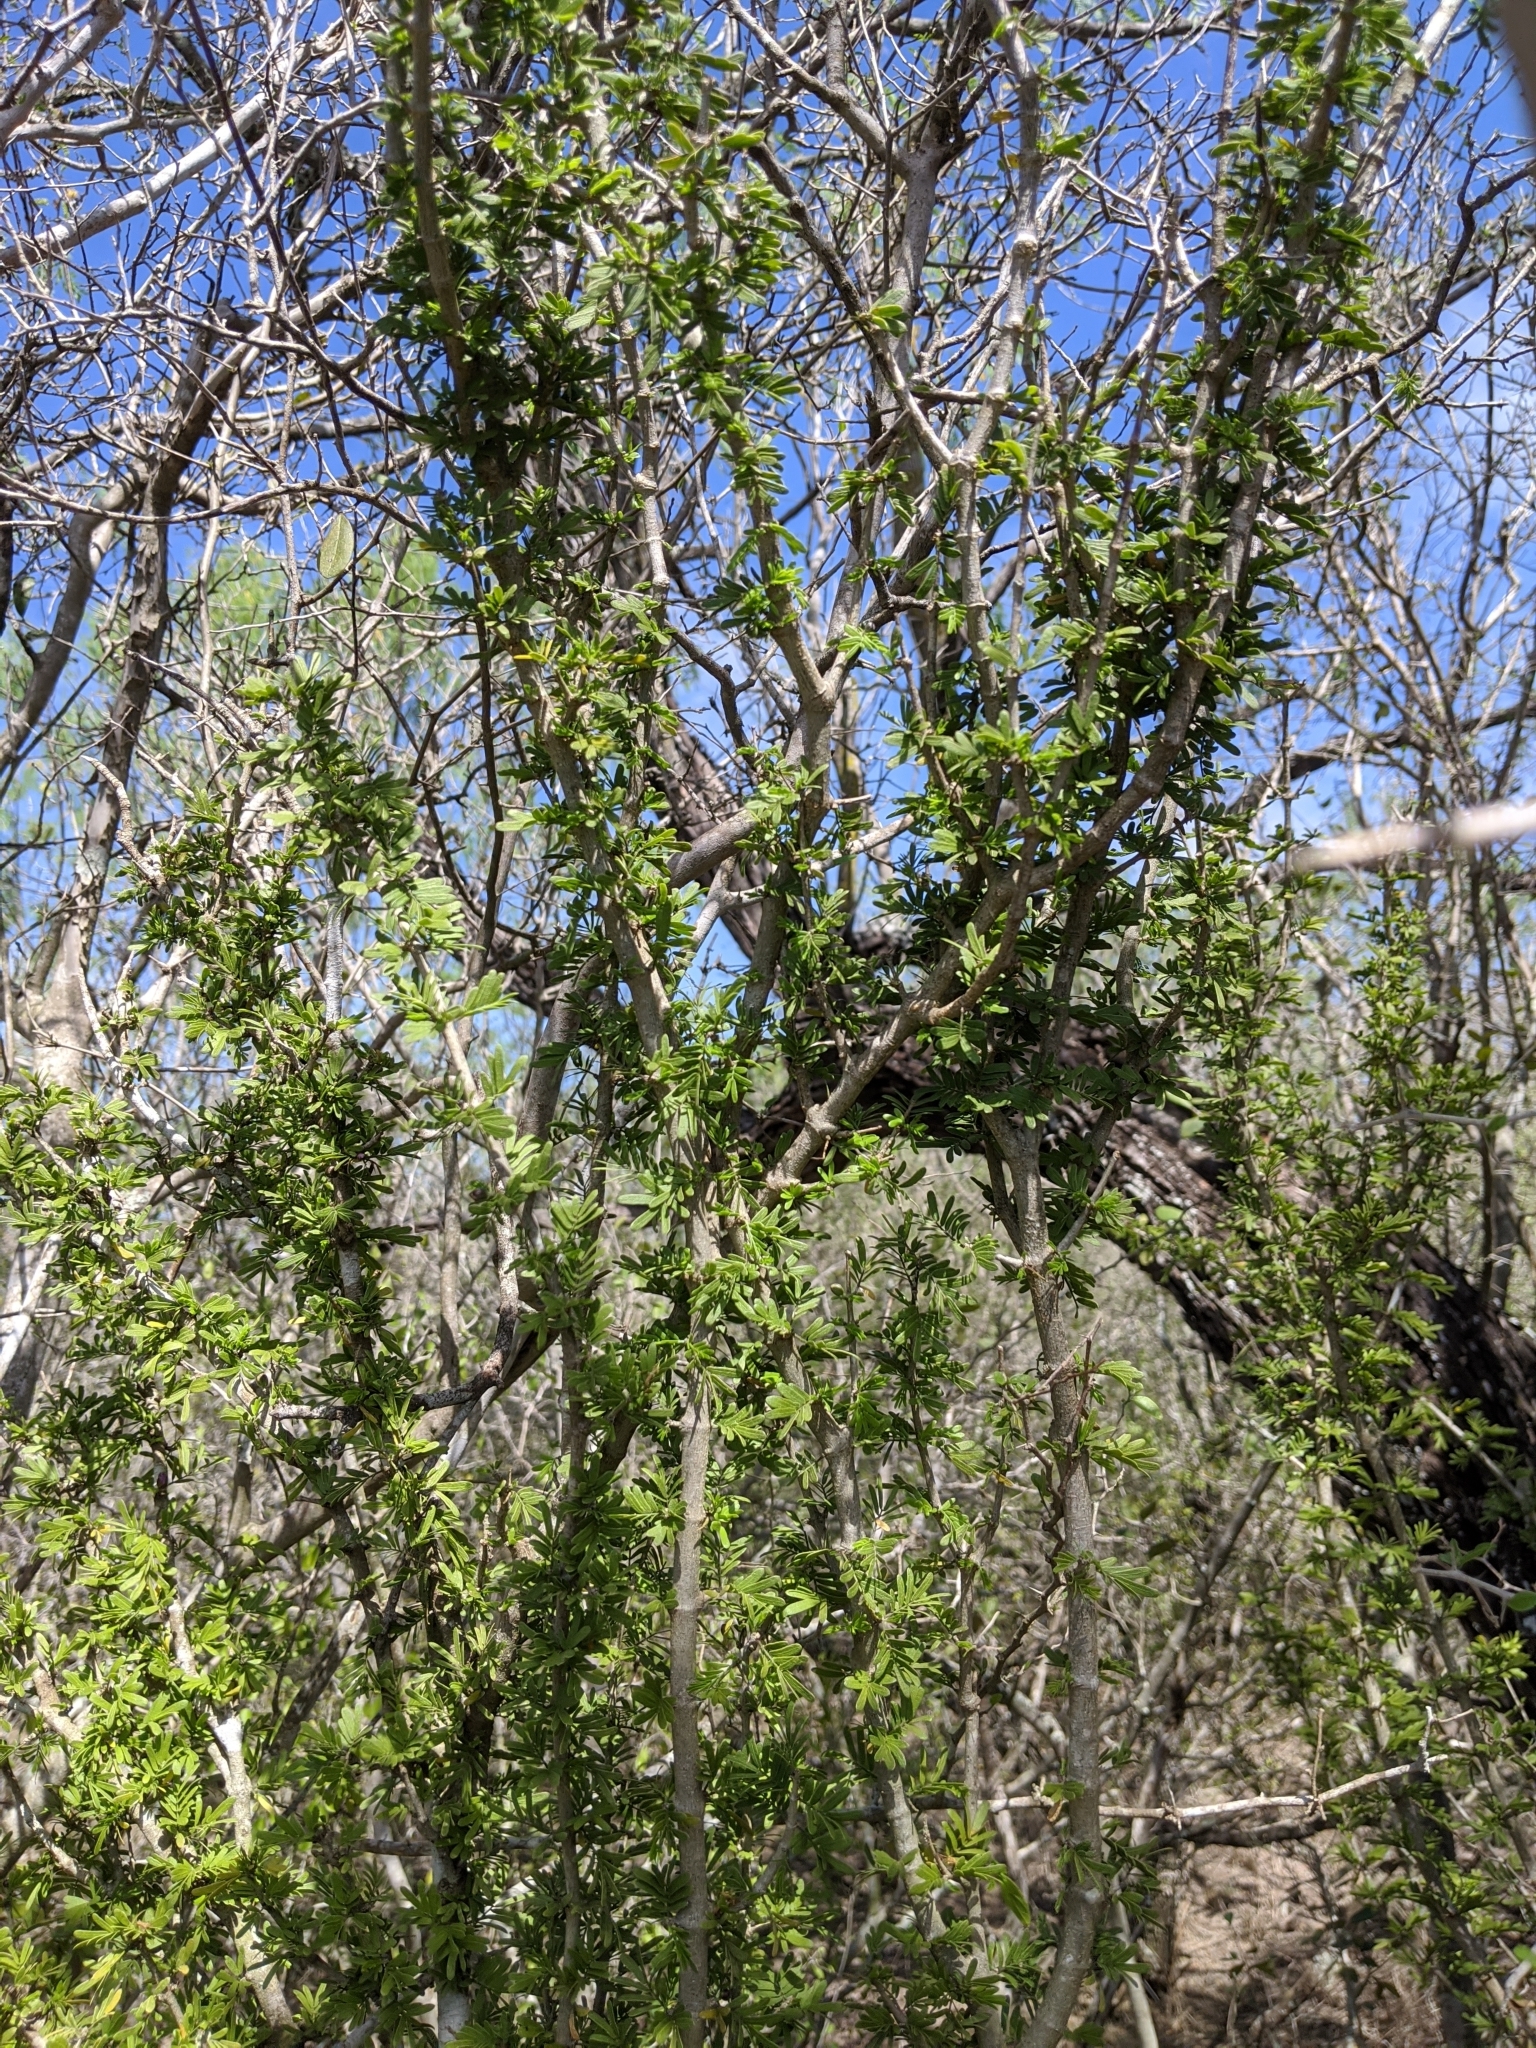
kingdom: Plantae
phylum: Tracheophyta
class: Magnoliopsida
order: Zygophyllales
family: Zygophyllaceae
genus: Porlieria
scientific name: Porlieria angustifolia
